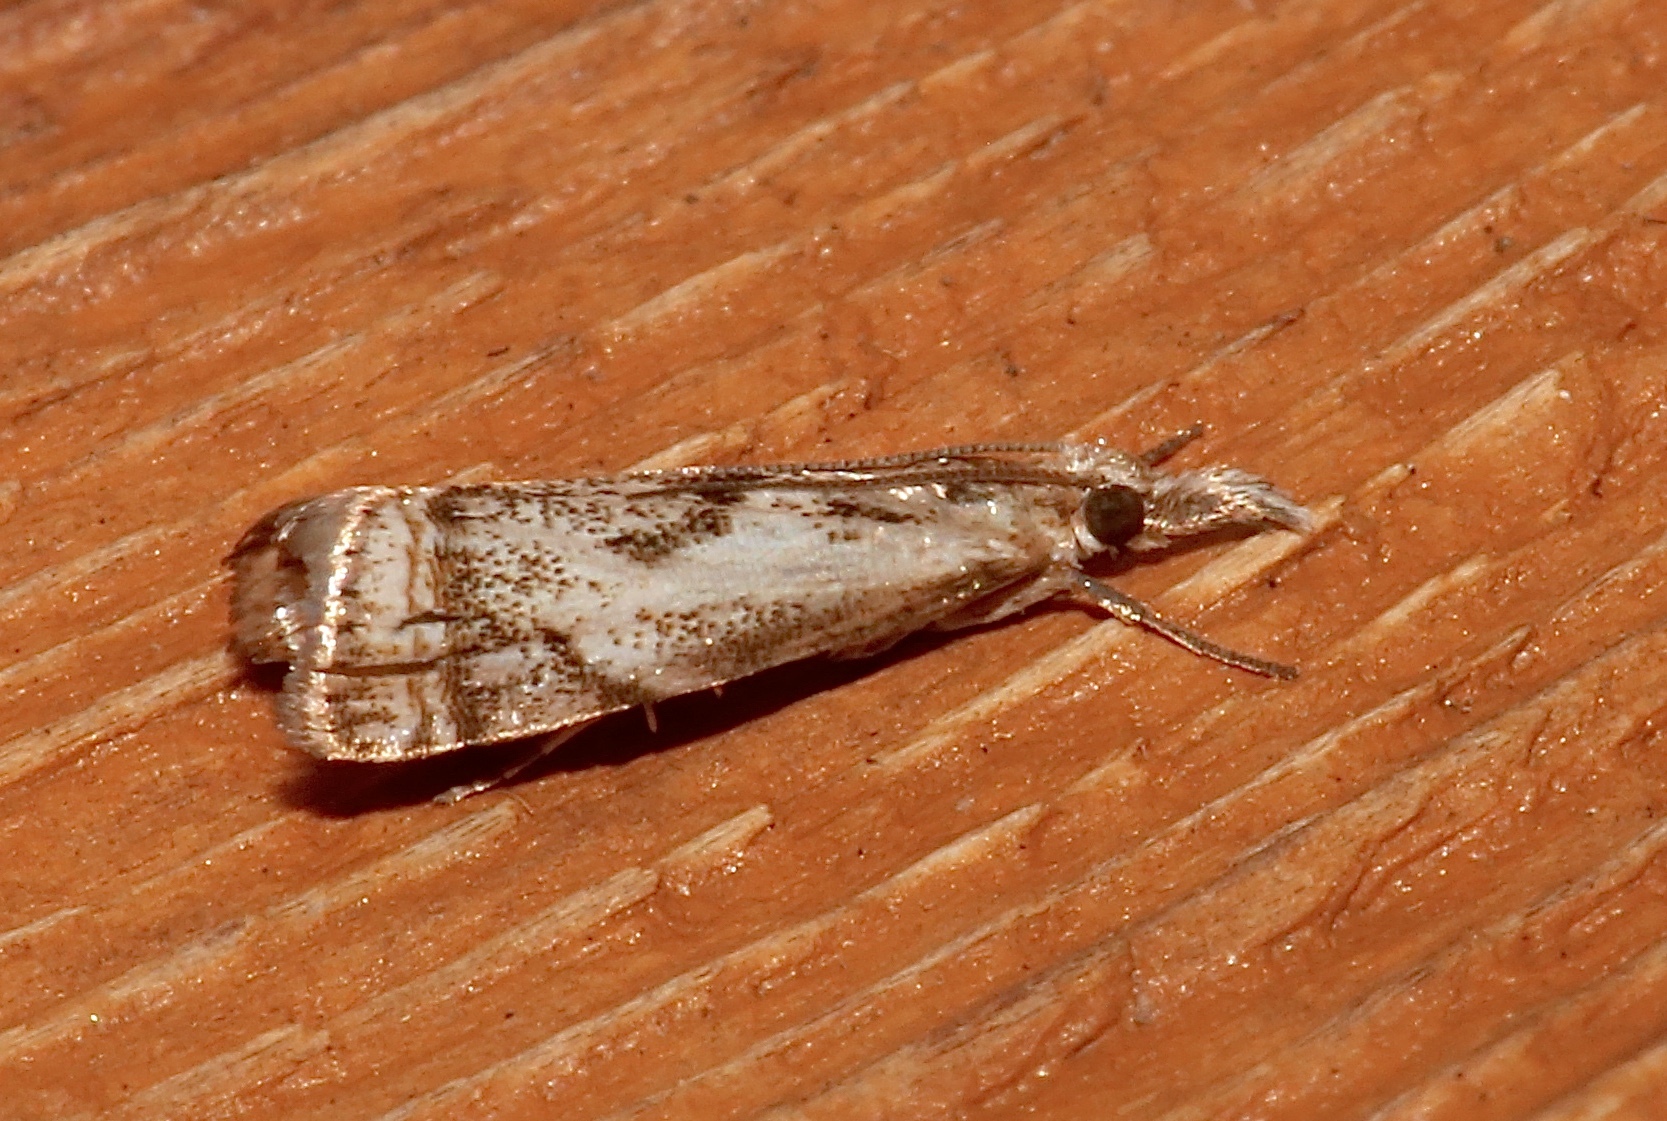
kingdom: Animalia
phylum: Arthropoda
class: Insecta
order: Lepidoptera
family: Crambidae
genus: Microcrambus
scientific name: Microcrambus elegans
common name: Elegant grass-veneer
